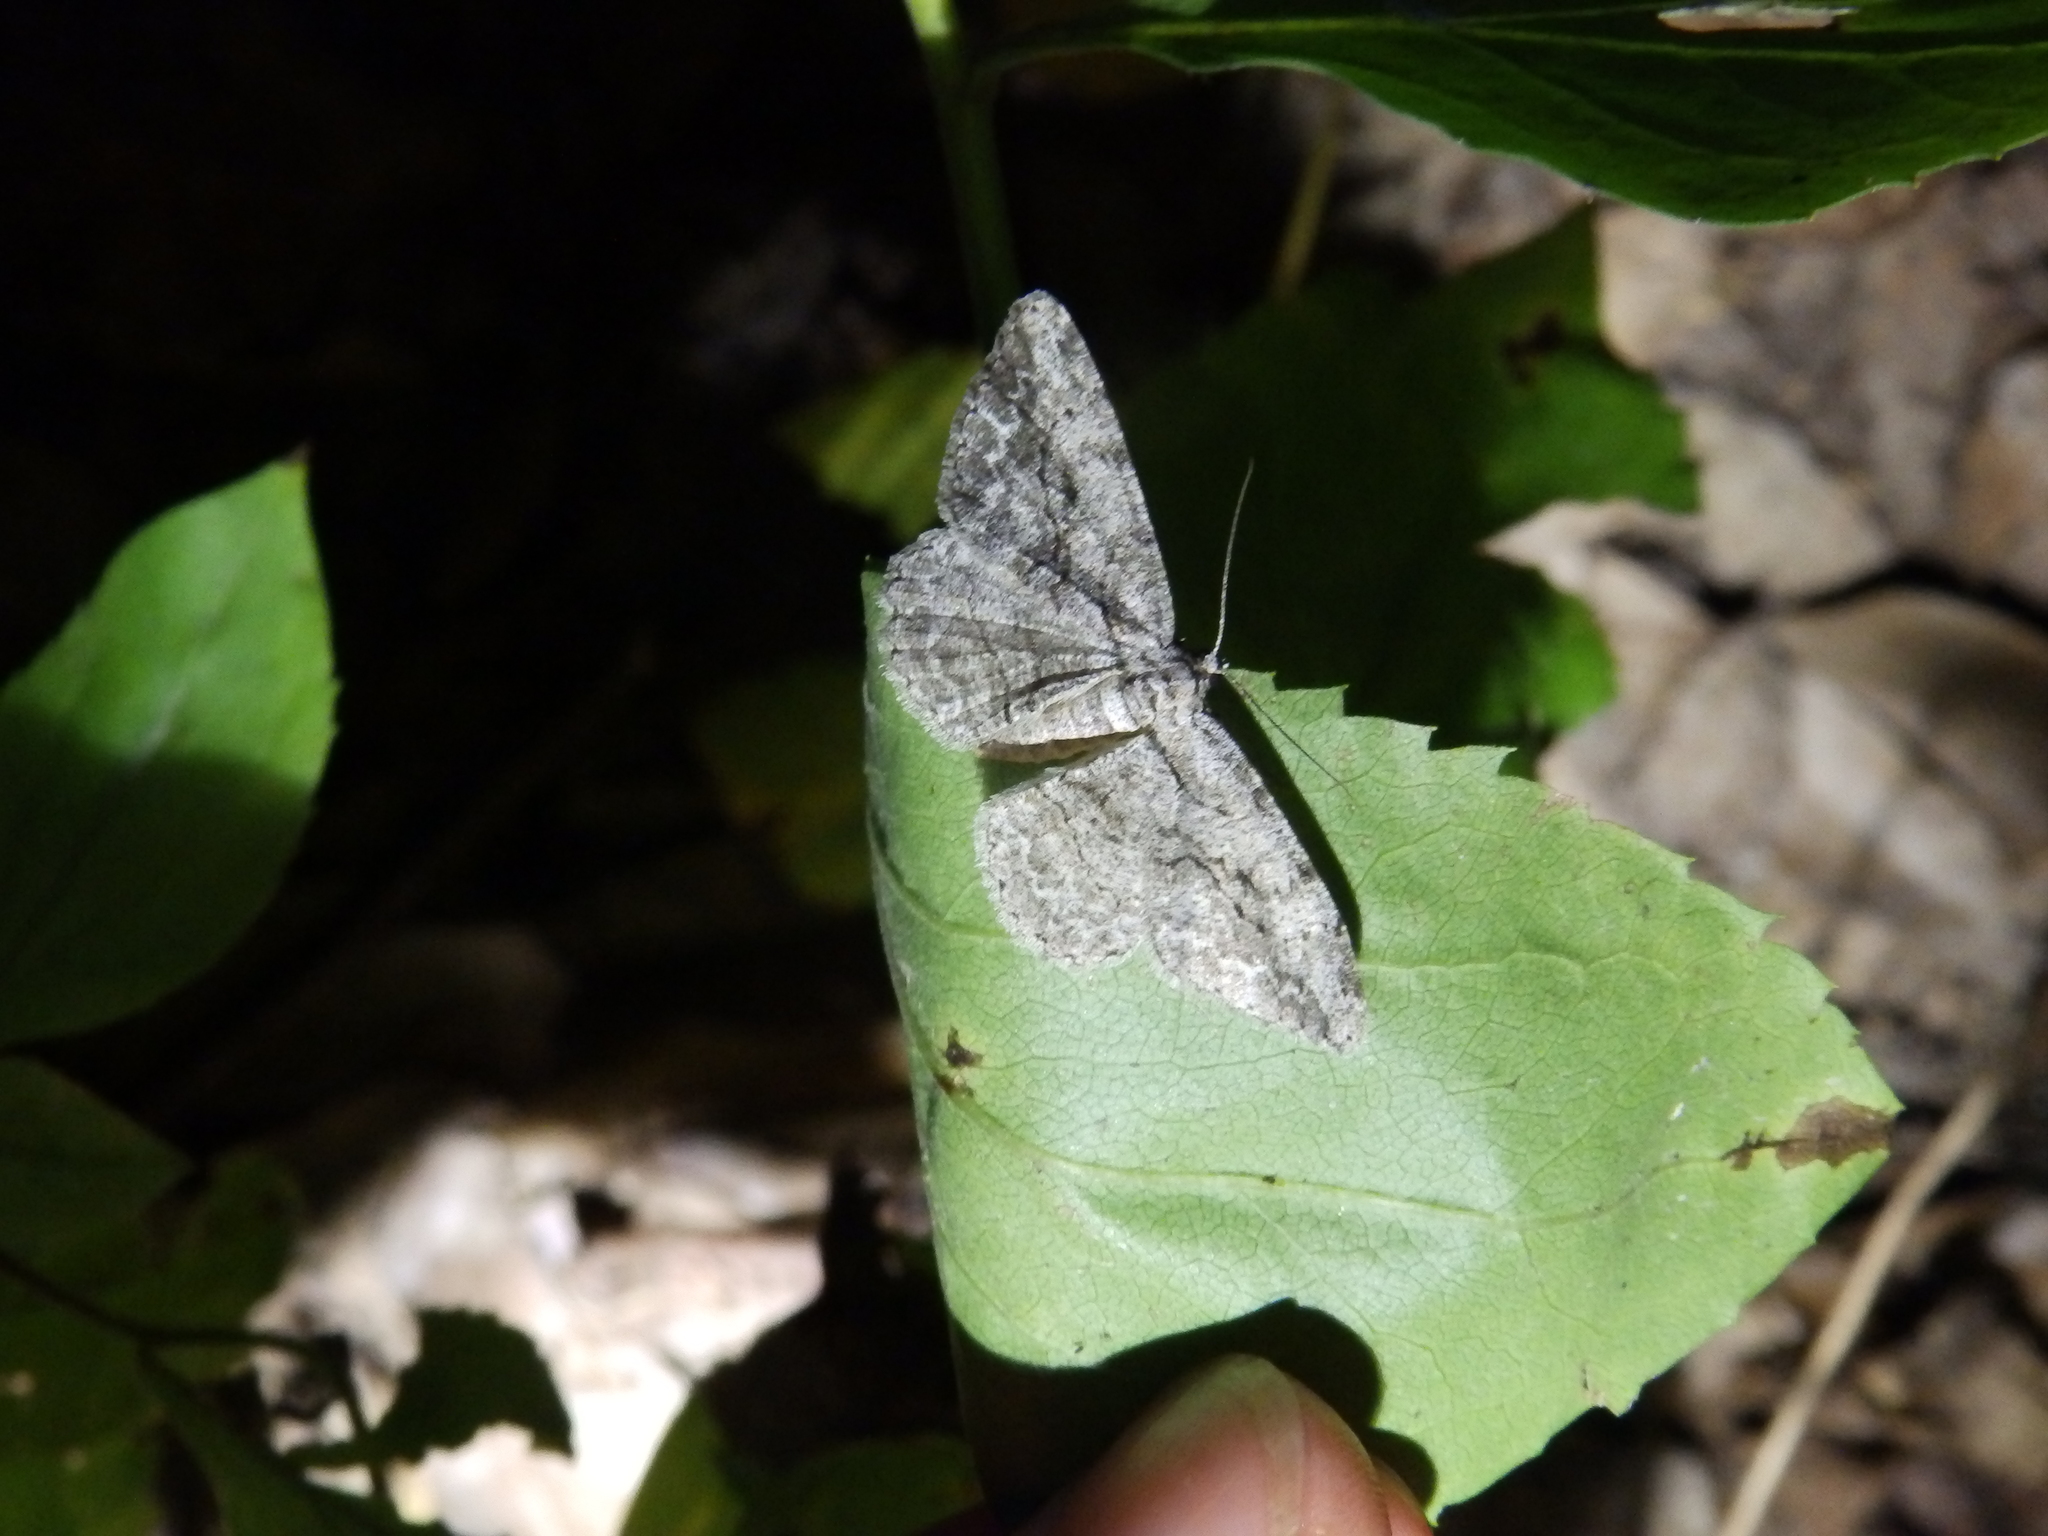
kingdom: Animalia
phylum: Arthropoda
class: Insecta
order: Lepidoptera
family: Geometridae
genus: Anavitrinella
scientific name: Anavitrinella pampinaria
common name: Common gray
